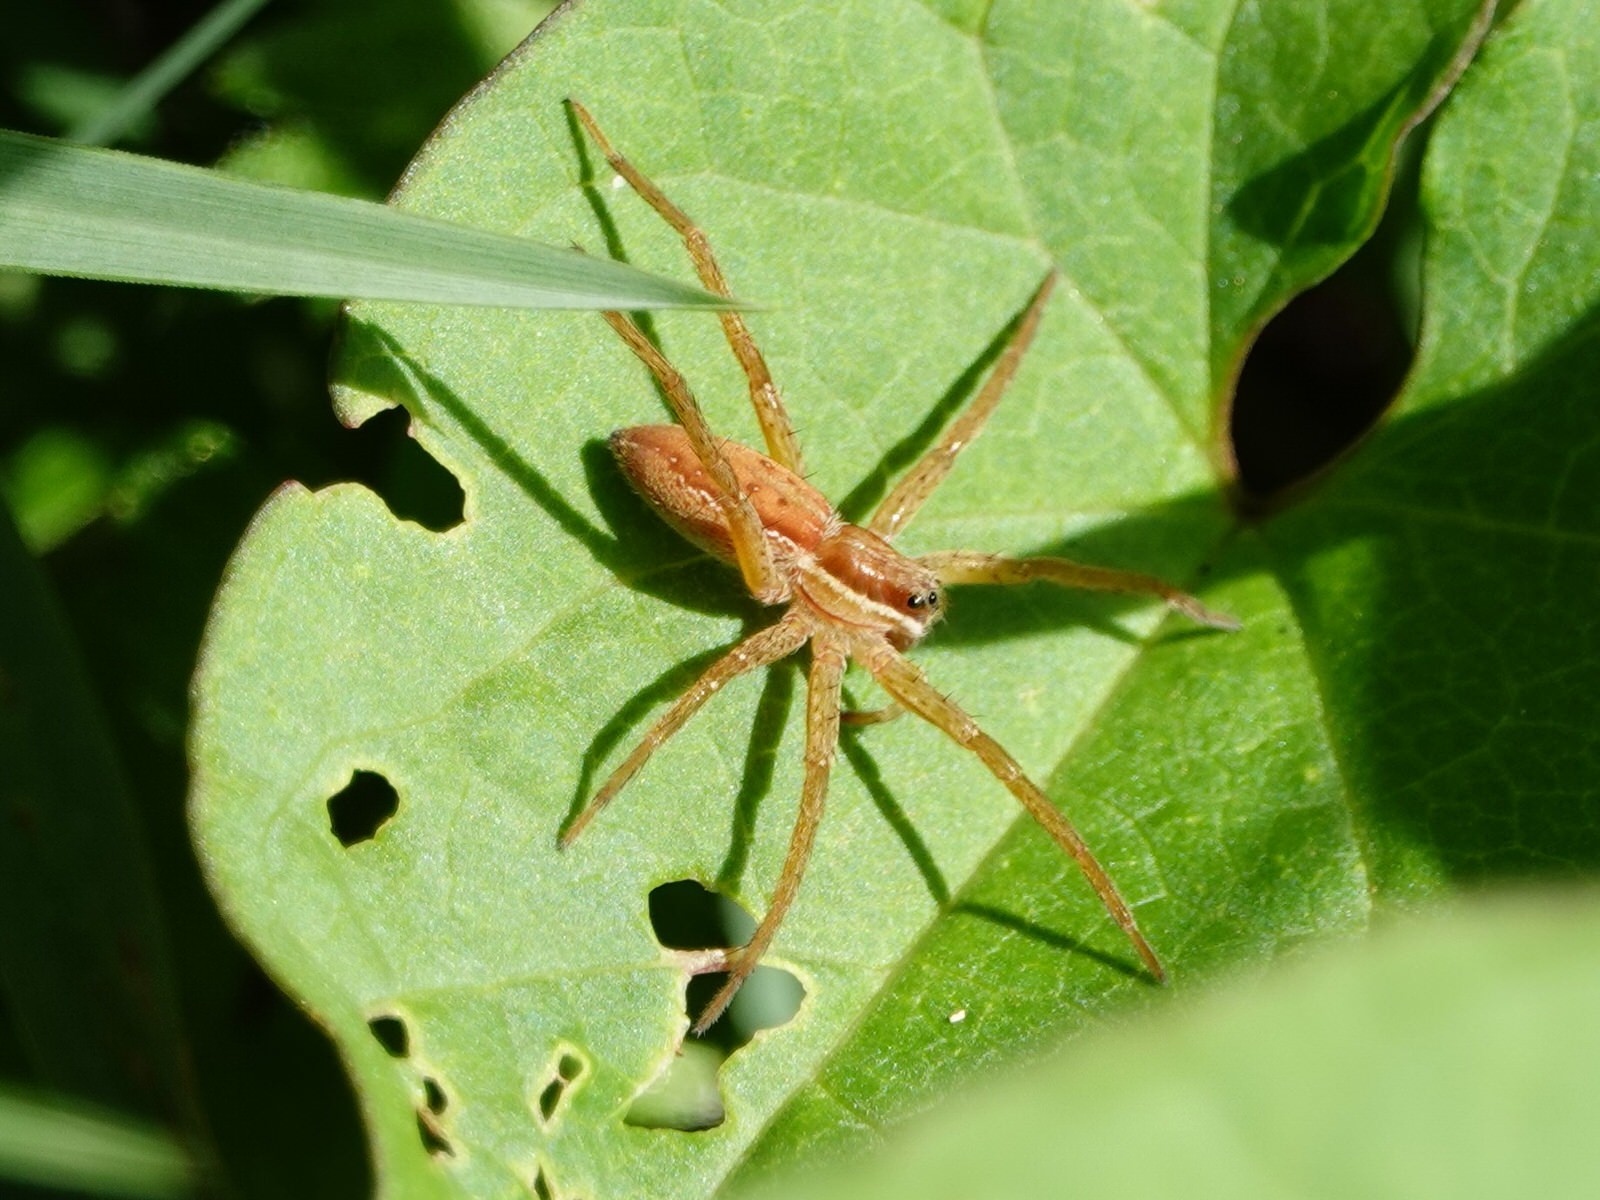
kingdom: Animalia
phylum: Arthropoda
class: Arachnida
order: Araneae
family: Pisauridae
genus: Dolomedes
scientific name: Dolomedes minor
